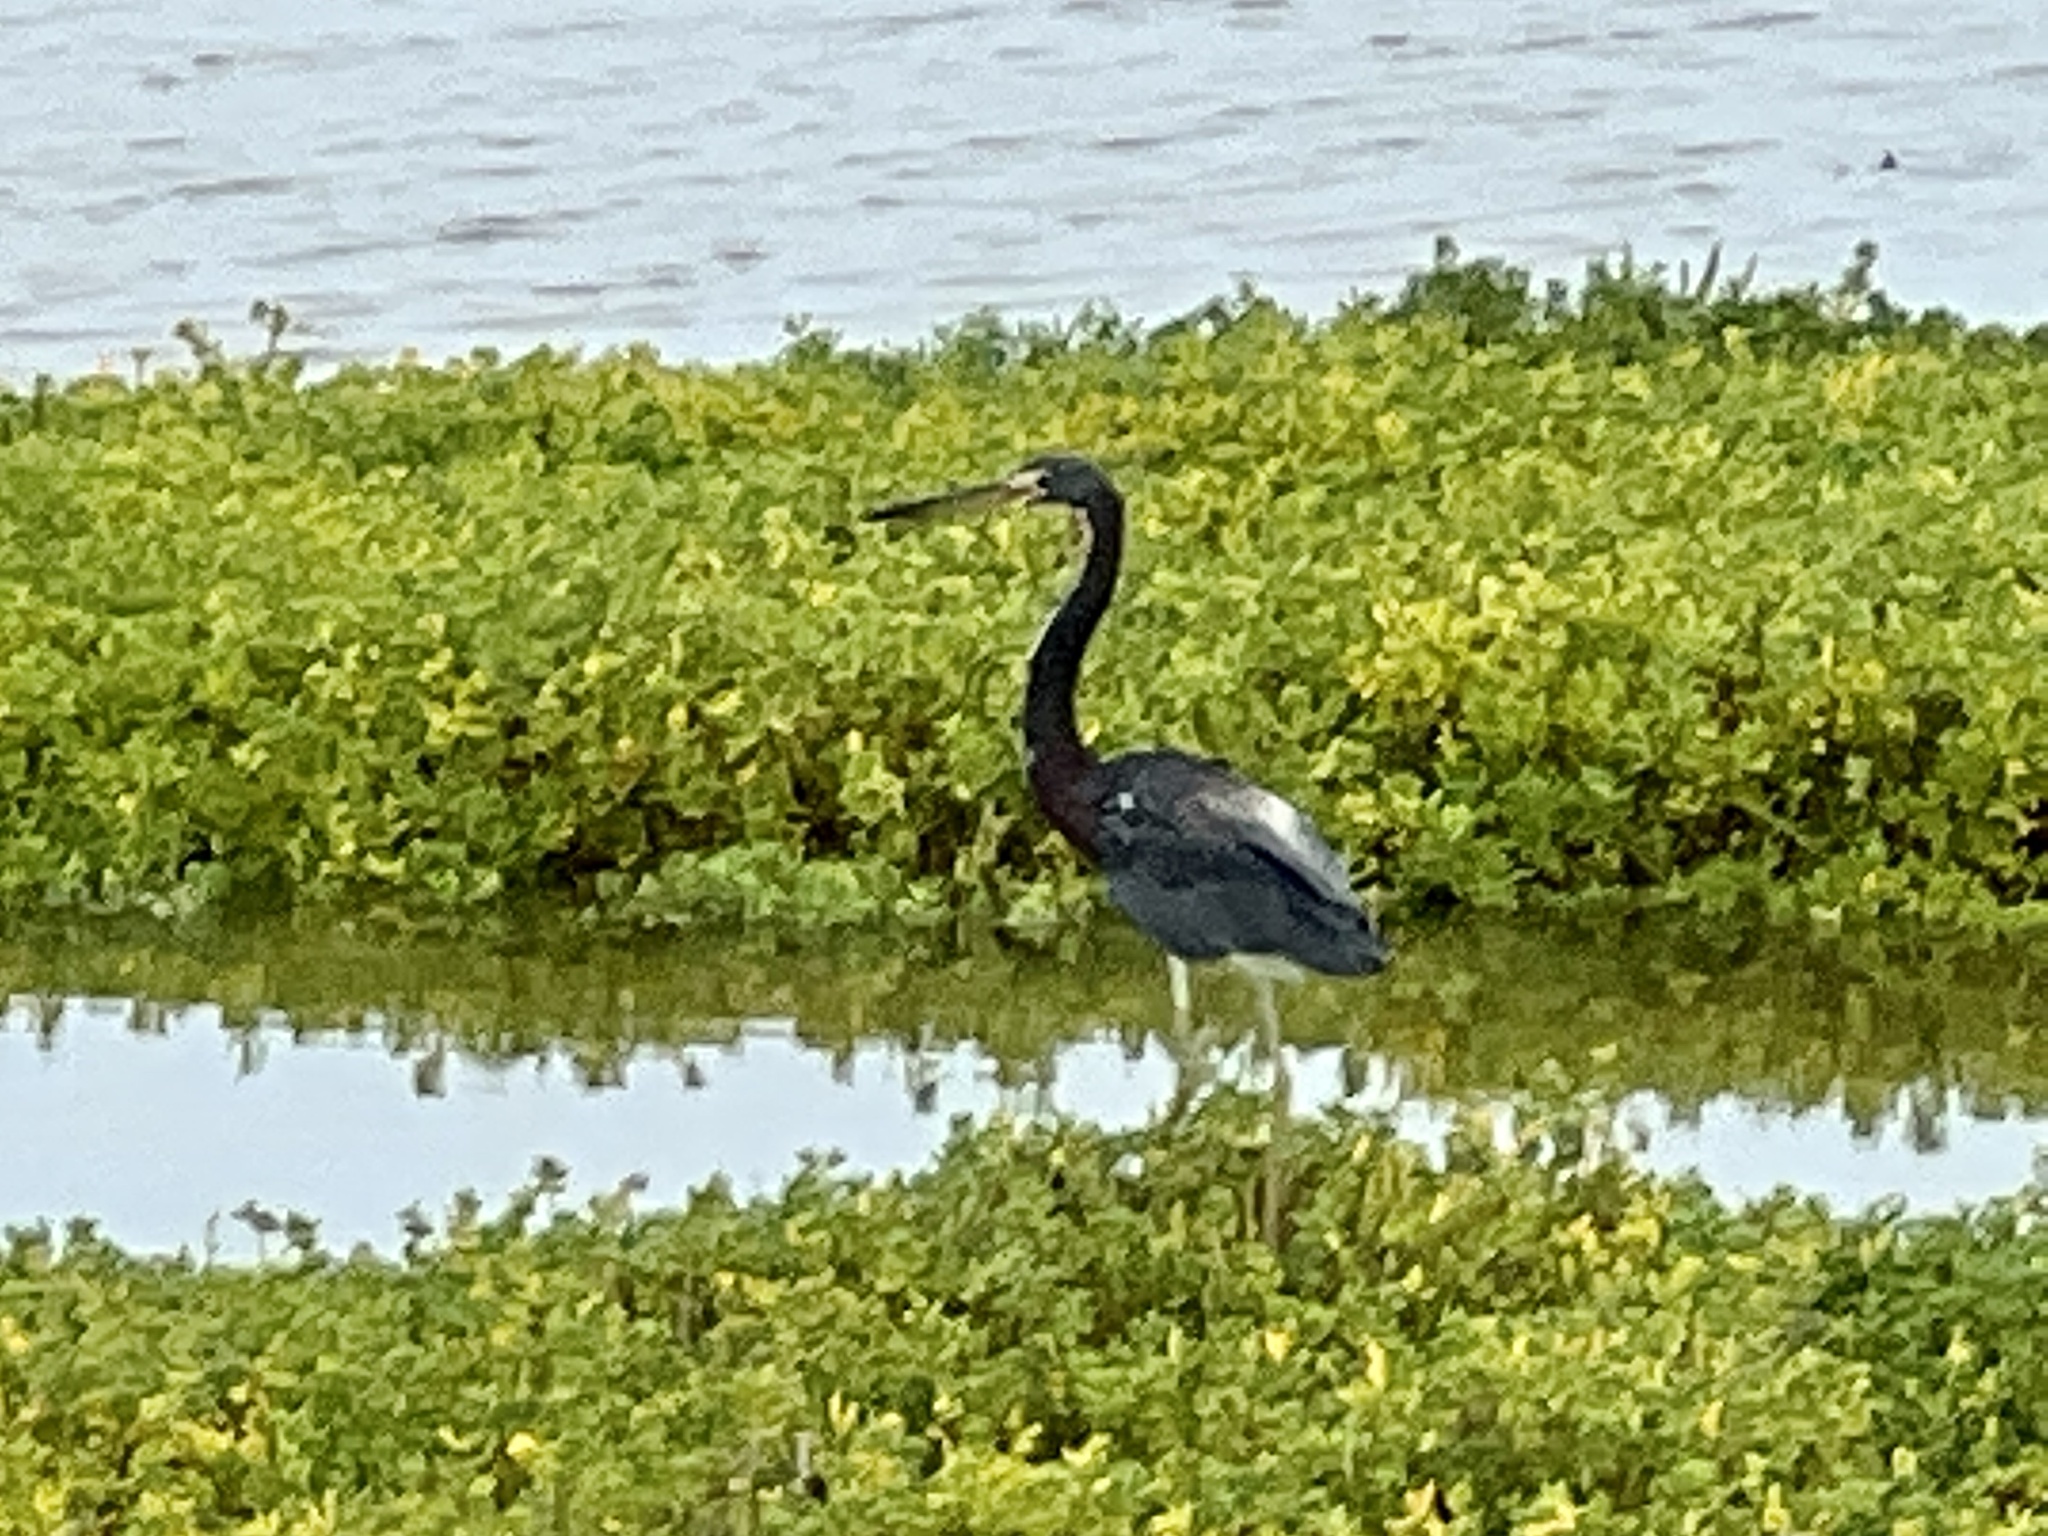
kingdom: Animalia
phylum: Chordata
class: Aves
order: Pelecaniformes
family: Ardeidae
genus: Egretta
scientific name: Egretta tricolor
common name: Tricolored heron
